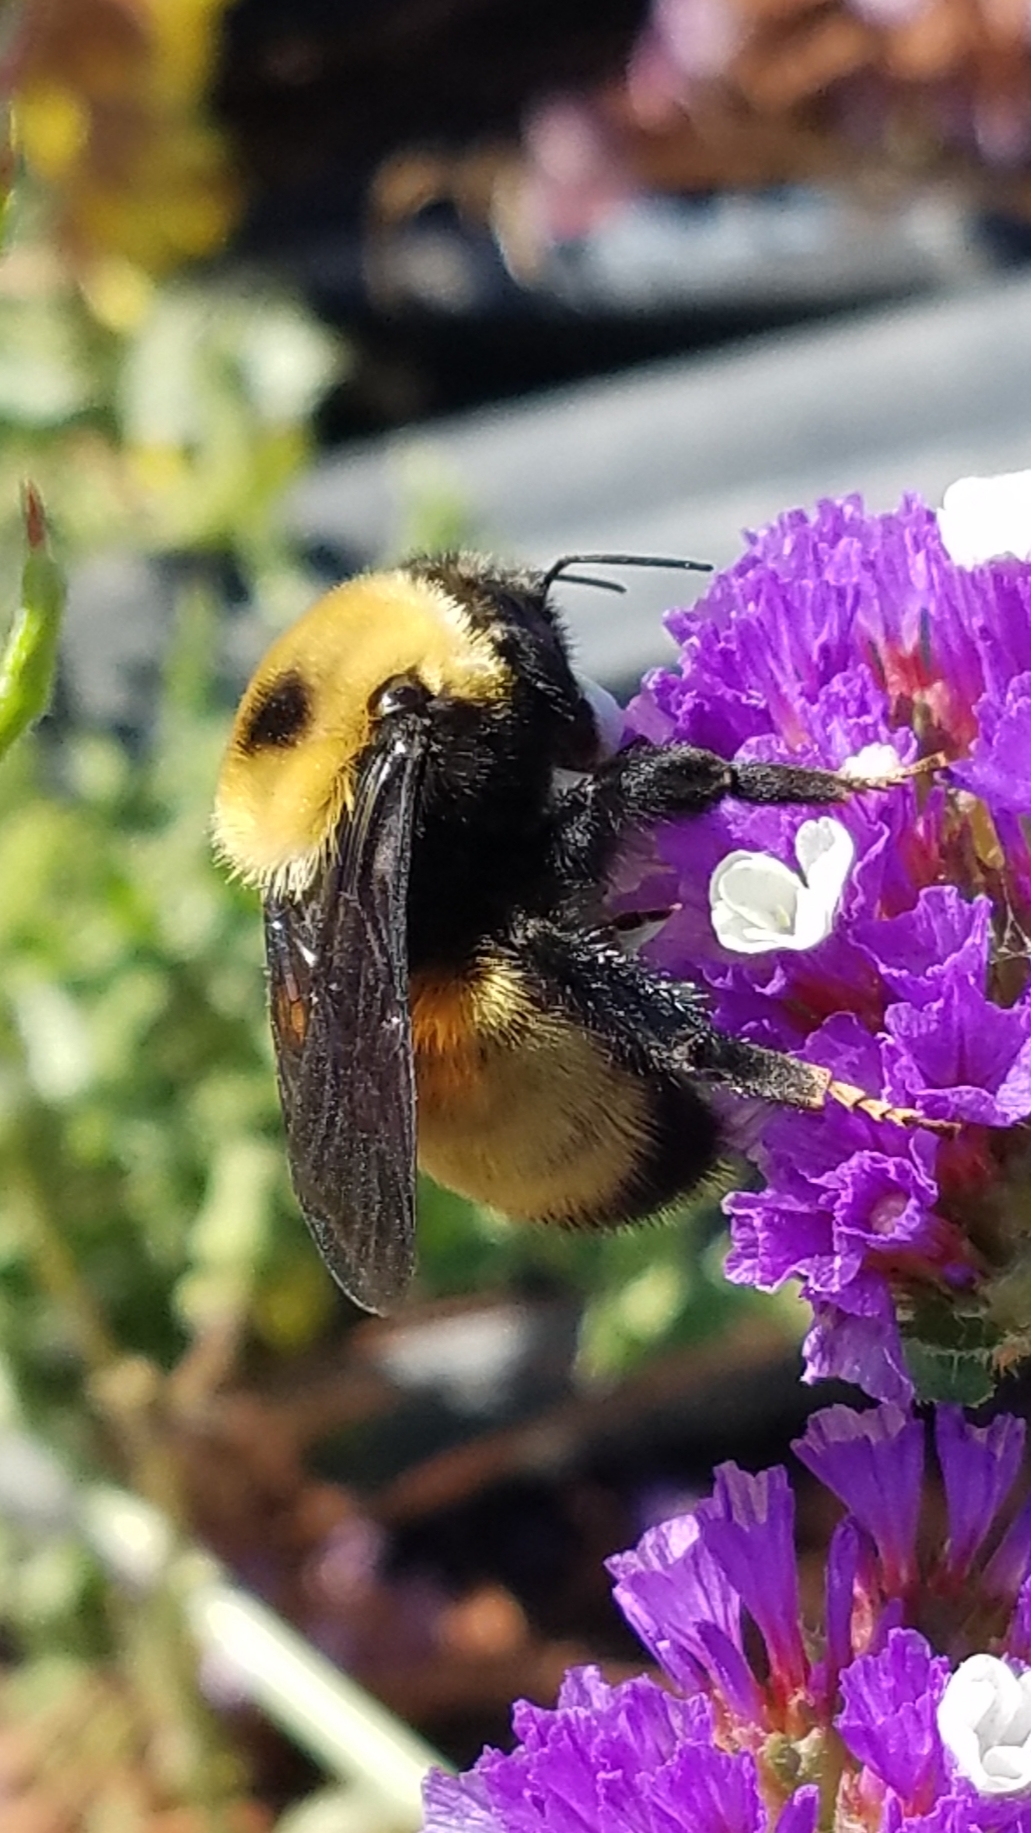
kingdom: Animalia
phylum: Arthropoda
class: Insecta
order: Hymenoptera
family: Apidae
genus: Bombus
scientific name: Bombus nevadensis
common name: Nevada bumble bee
